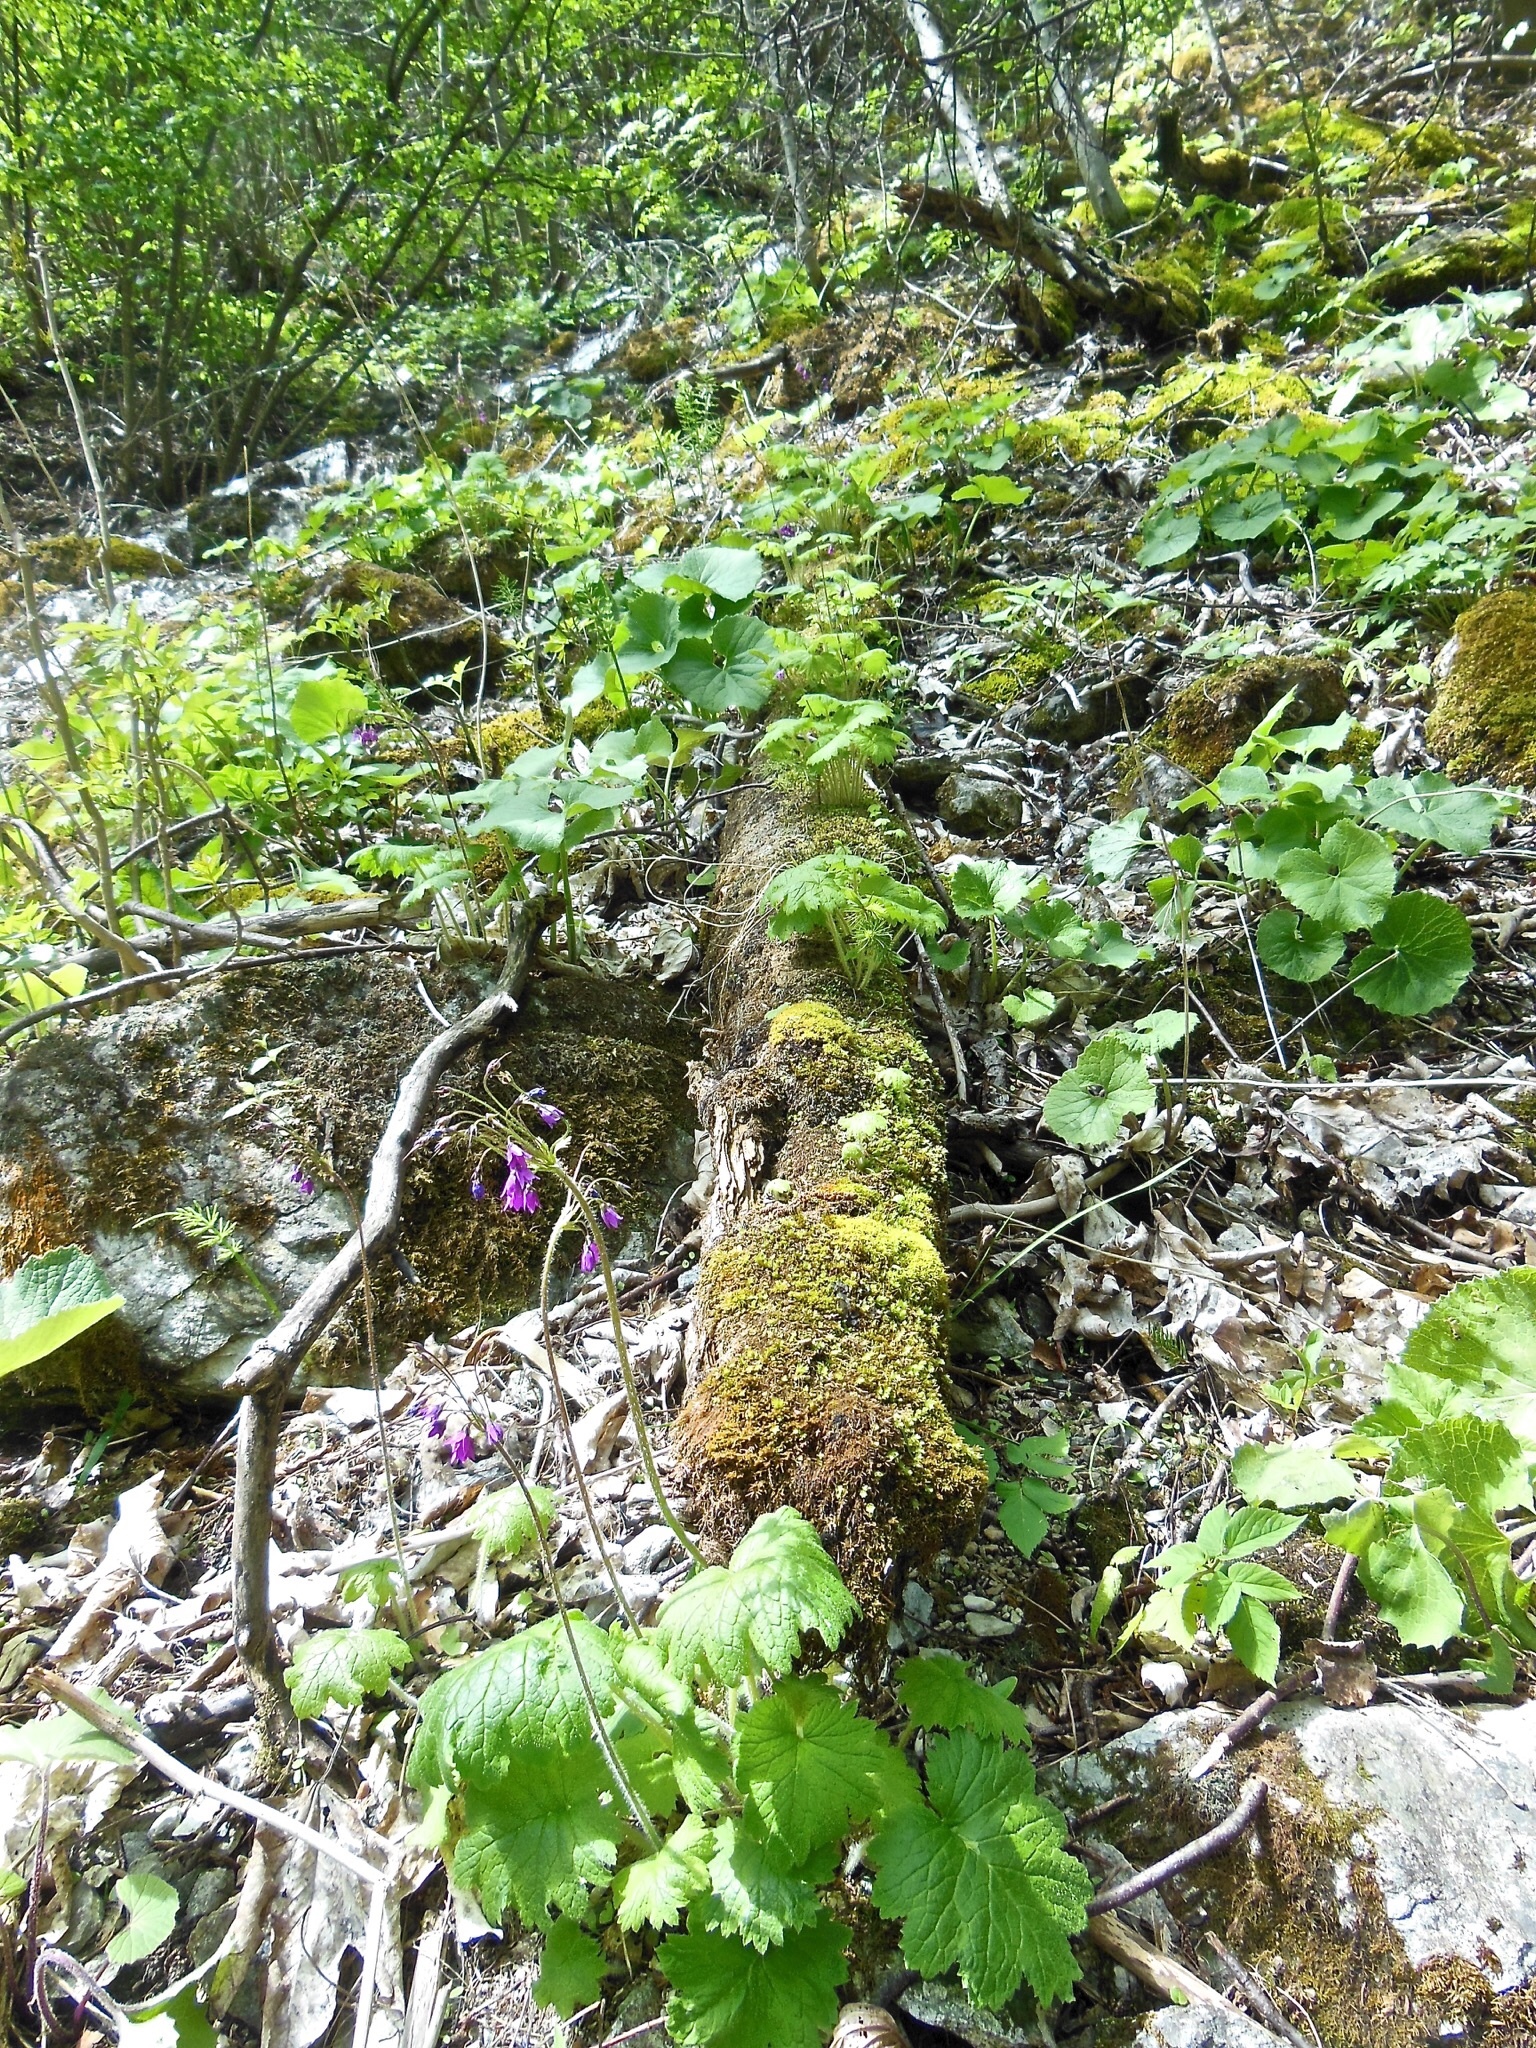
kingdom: Plantae
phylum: Tracheophyta
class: Magnoliopsida
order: Ericales
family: Primulaceae
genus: Primula
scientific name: Primula matthioli
